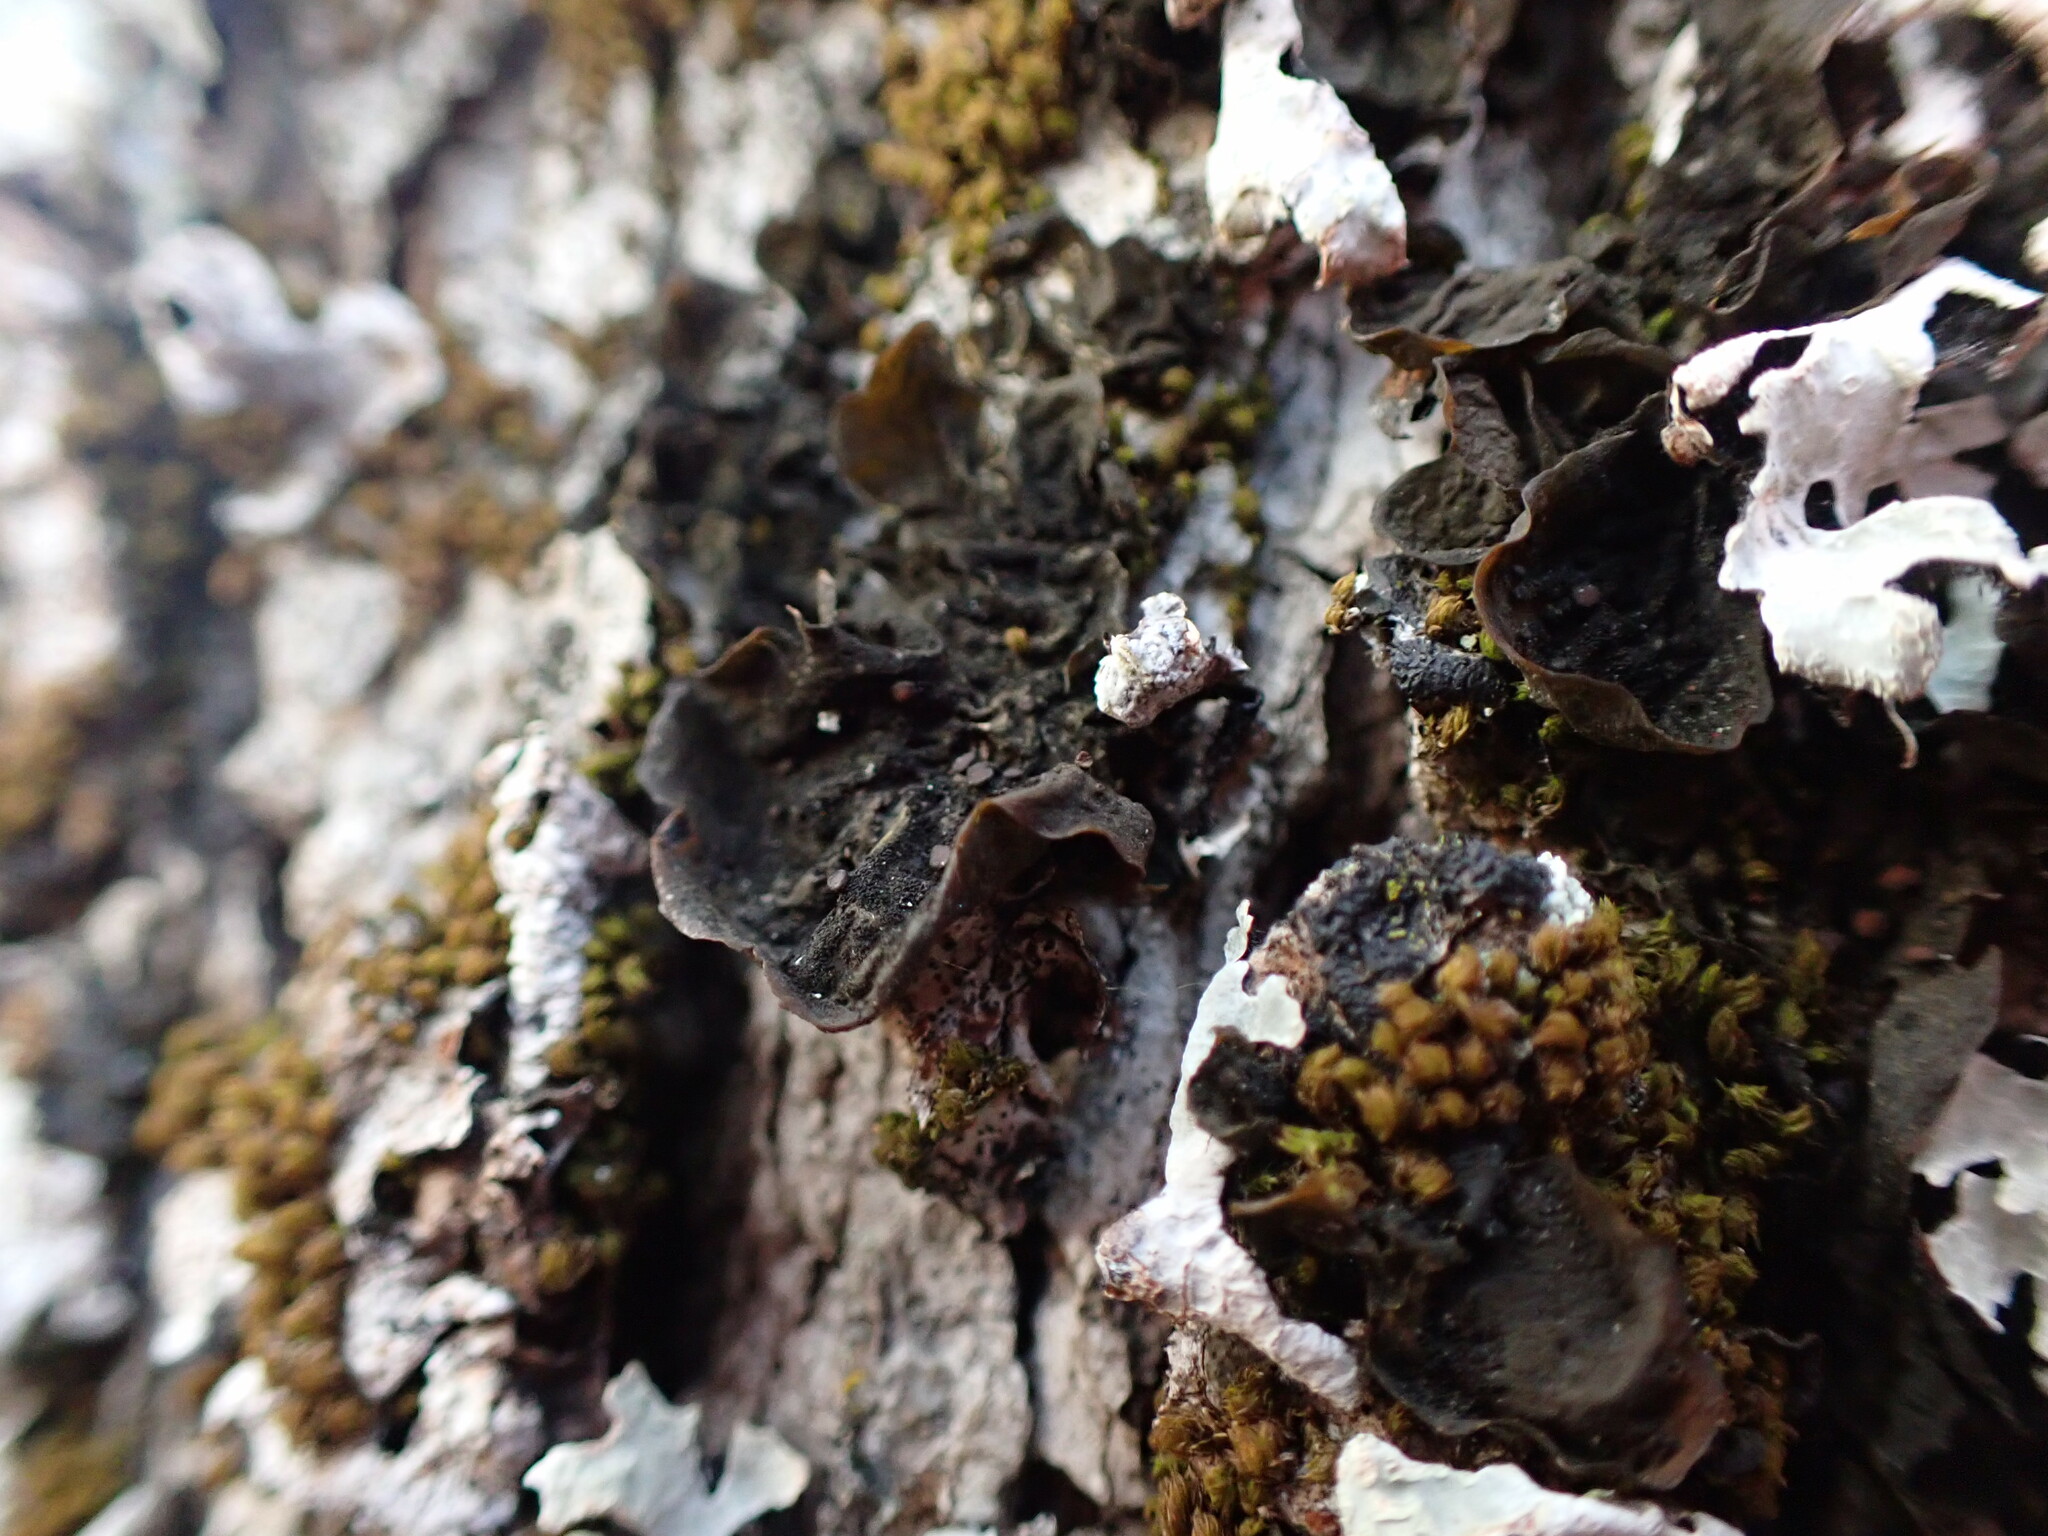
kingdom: Fungi
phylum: Ascomycota
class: Lecanoromycetes
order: Peltigerales
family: Collemataceae
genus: Collema
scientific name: Collema nigrescens
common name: Blistered jelly lichen
